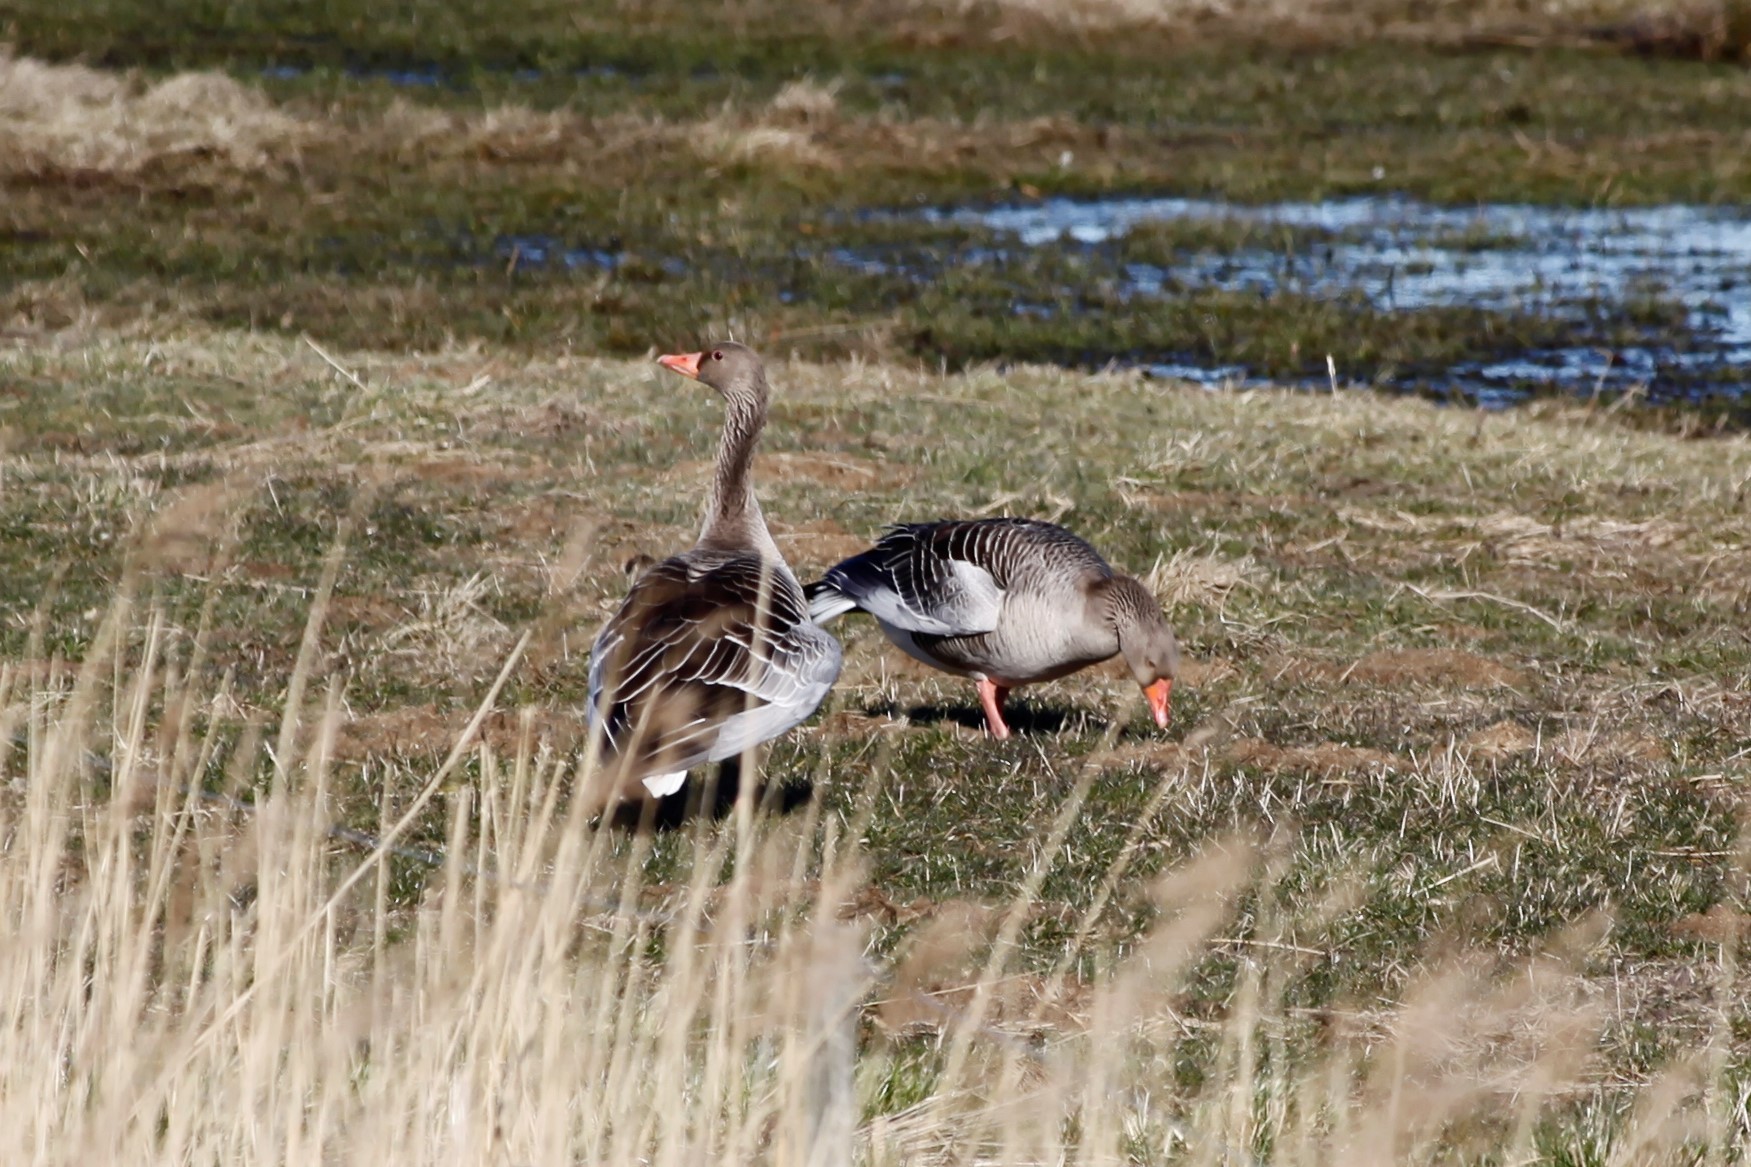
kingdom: Animalia
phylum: Chordata
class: Aves
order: Anseriformes
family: Anatidae
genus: Anser
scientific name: Anser anser
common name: Greylag goose
